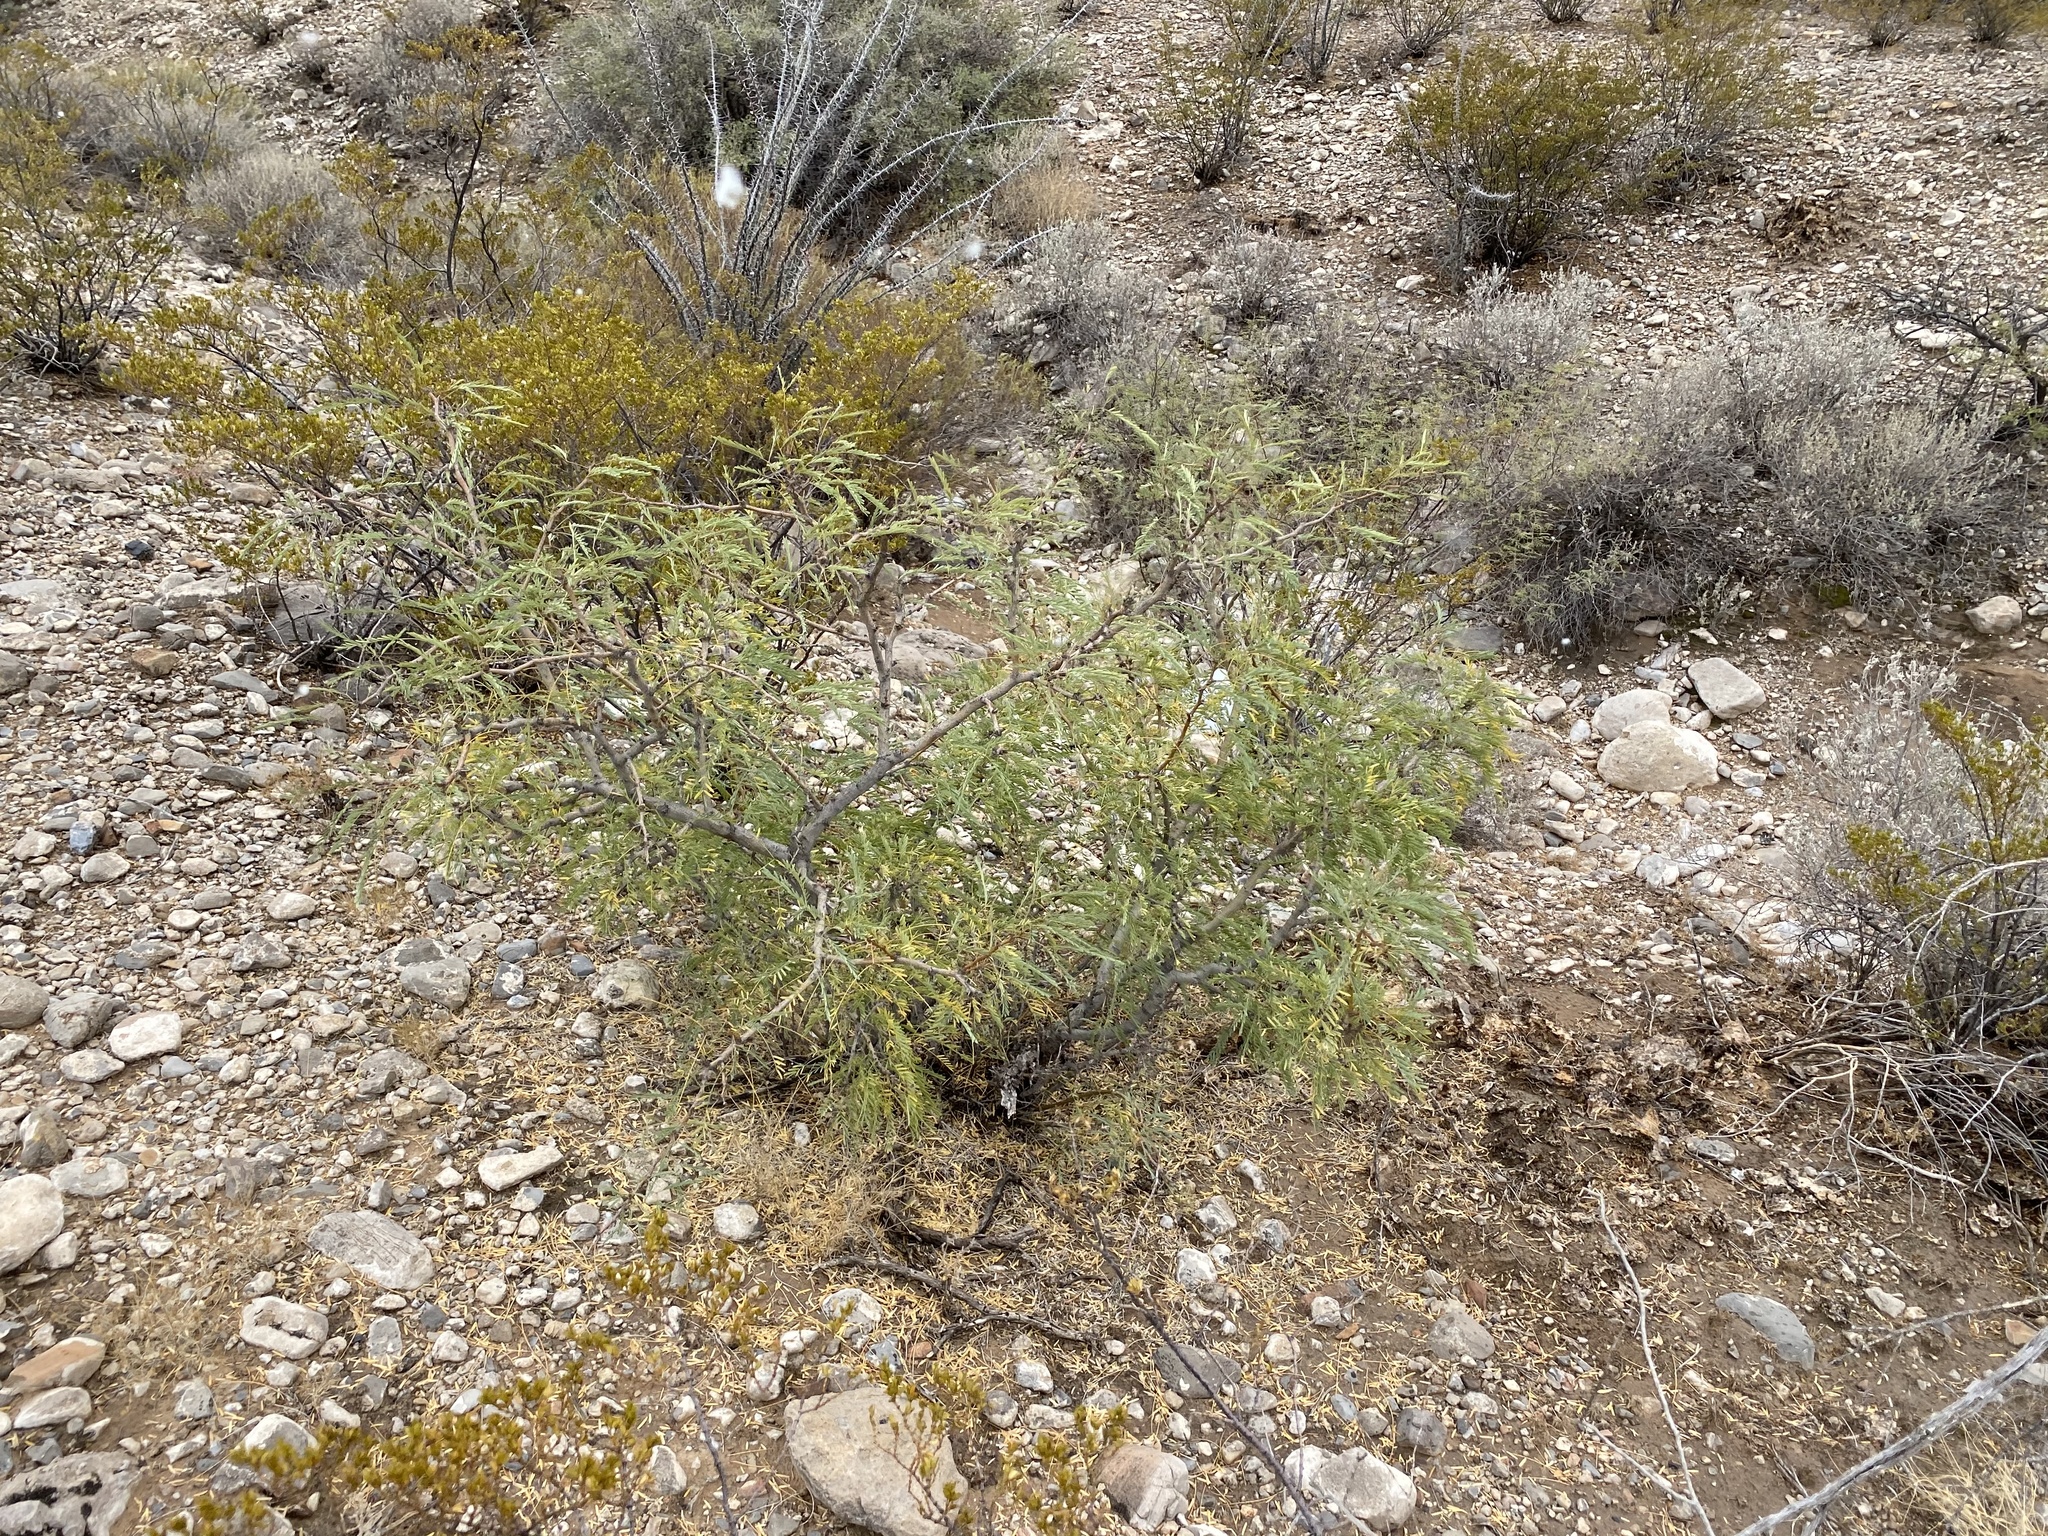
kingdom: Plantae
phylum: Tracheophyta
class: Magnoliopsida
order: Fabales
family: Fabaceae
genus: Prosopis
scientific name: Prosopis glandulosa
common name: Honey mesquite
